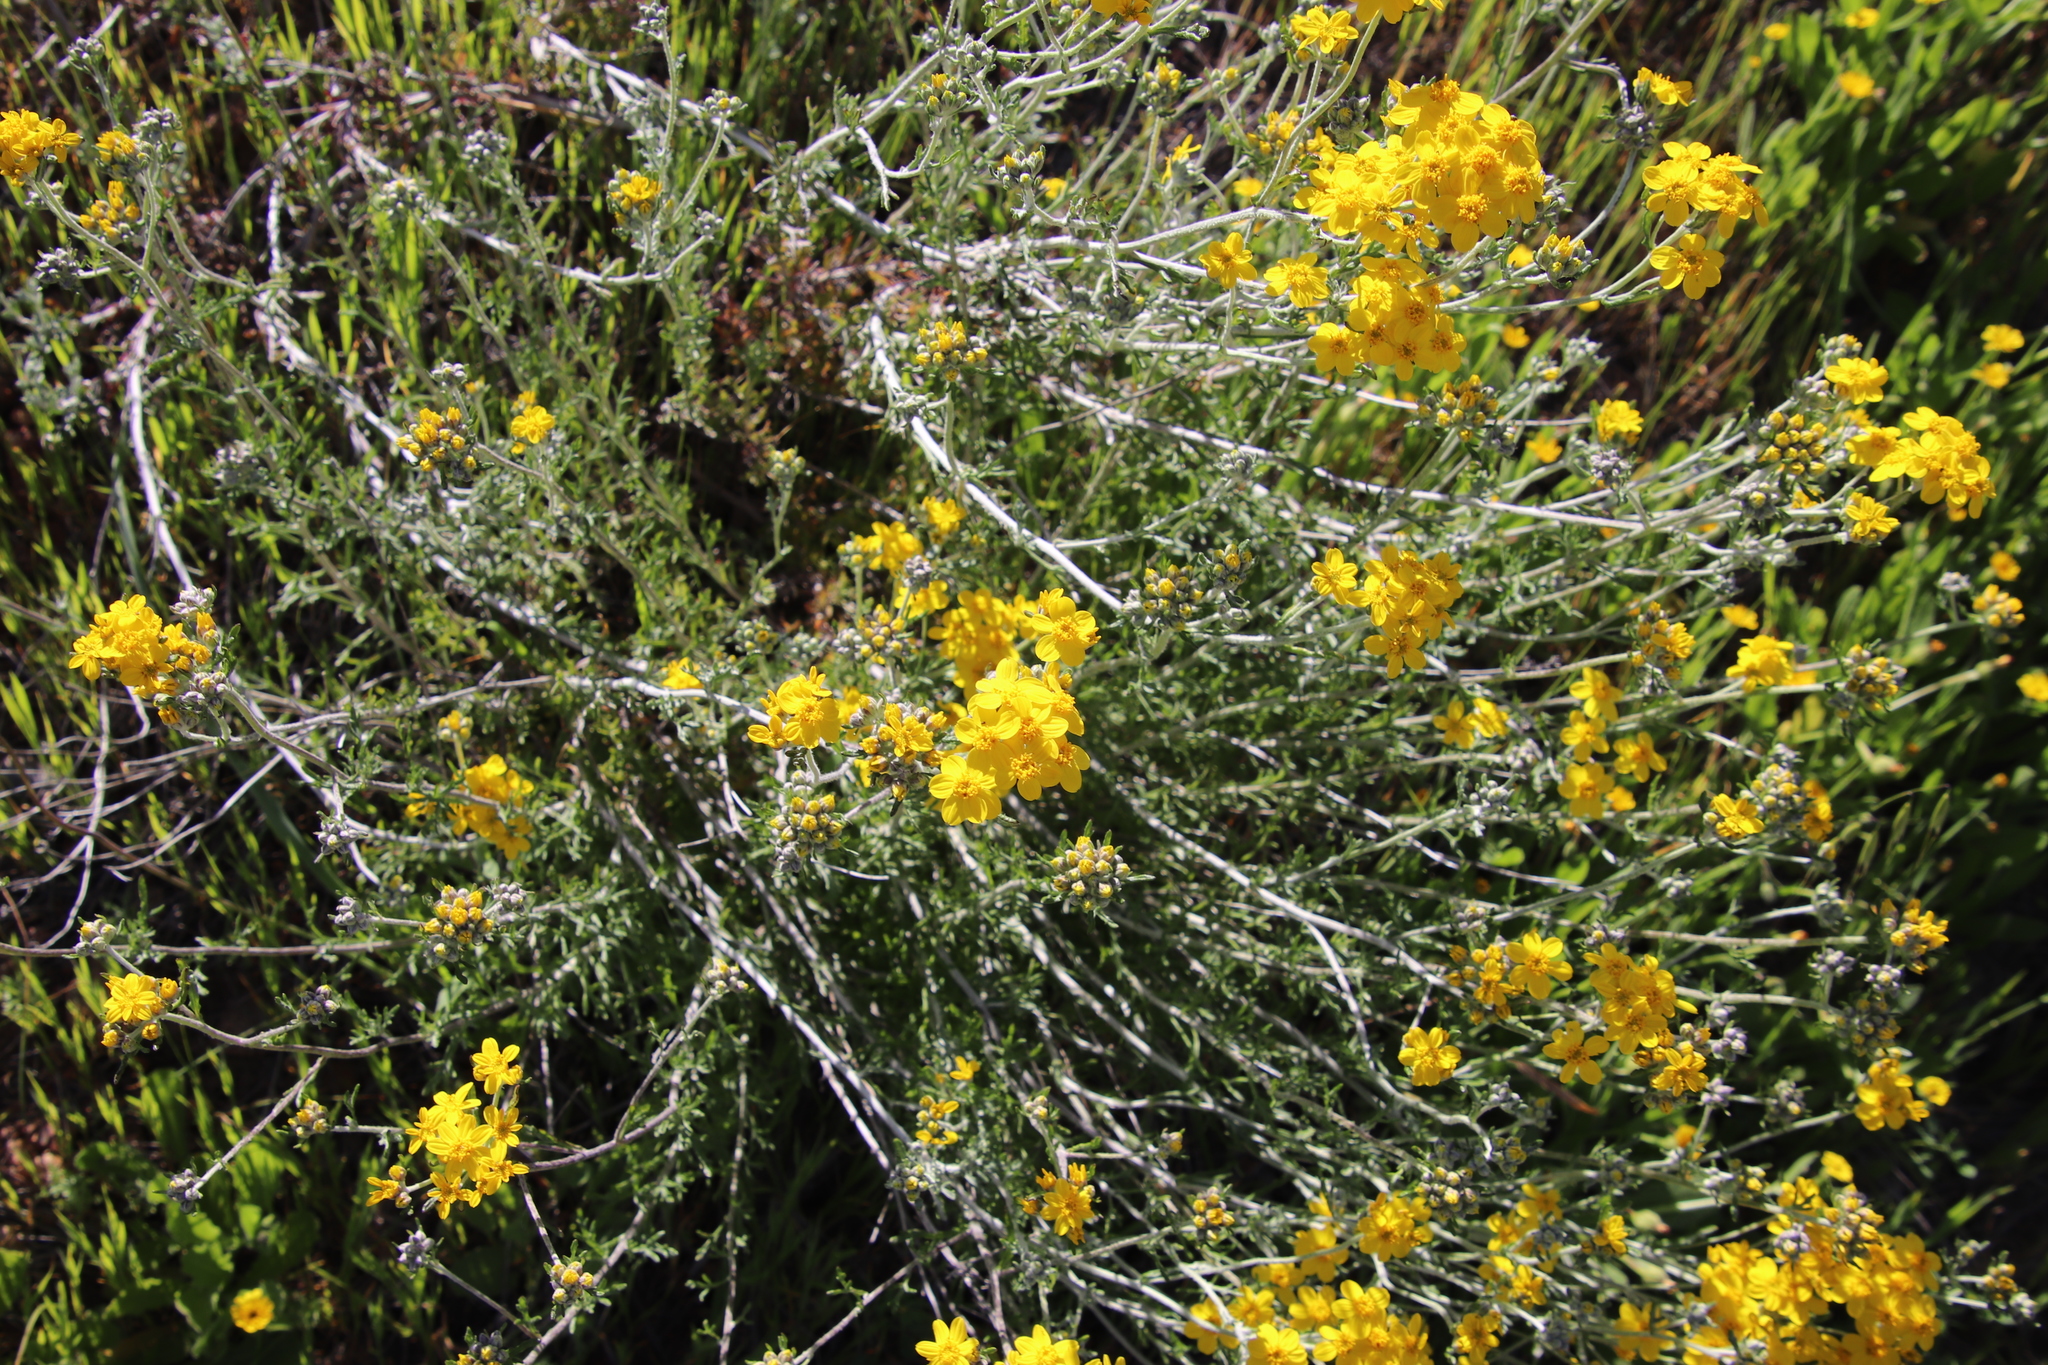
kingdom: Plantae
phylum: Tracheophyta
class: Magnoliopsida
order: Asterales
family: Asteraceae
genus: Eriophyllum
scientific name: Eriophyllum confertiflorum
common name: Golden-yarrow
